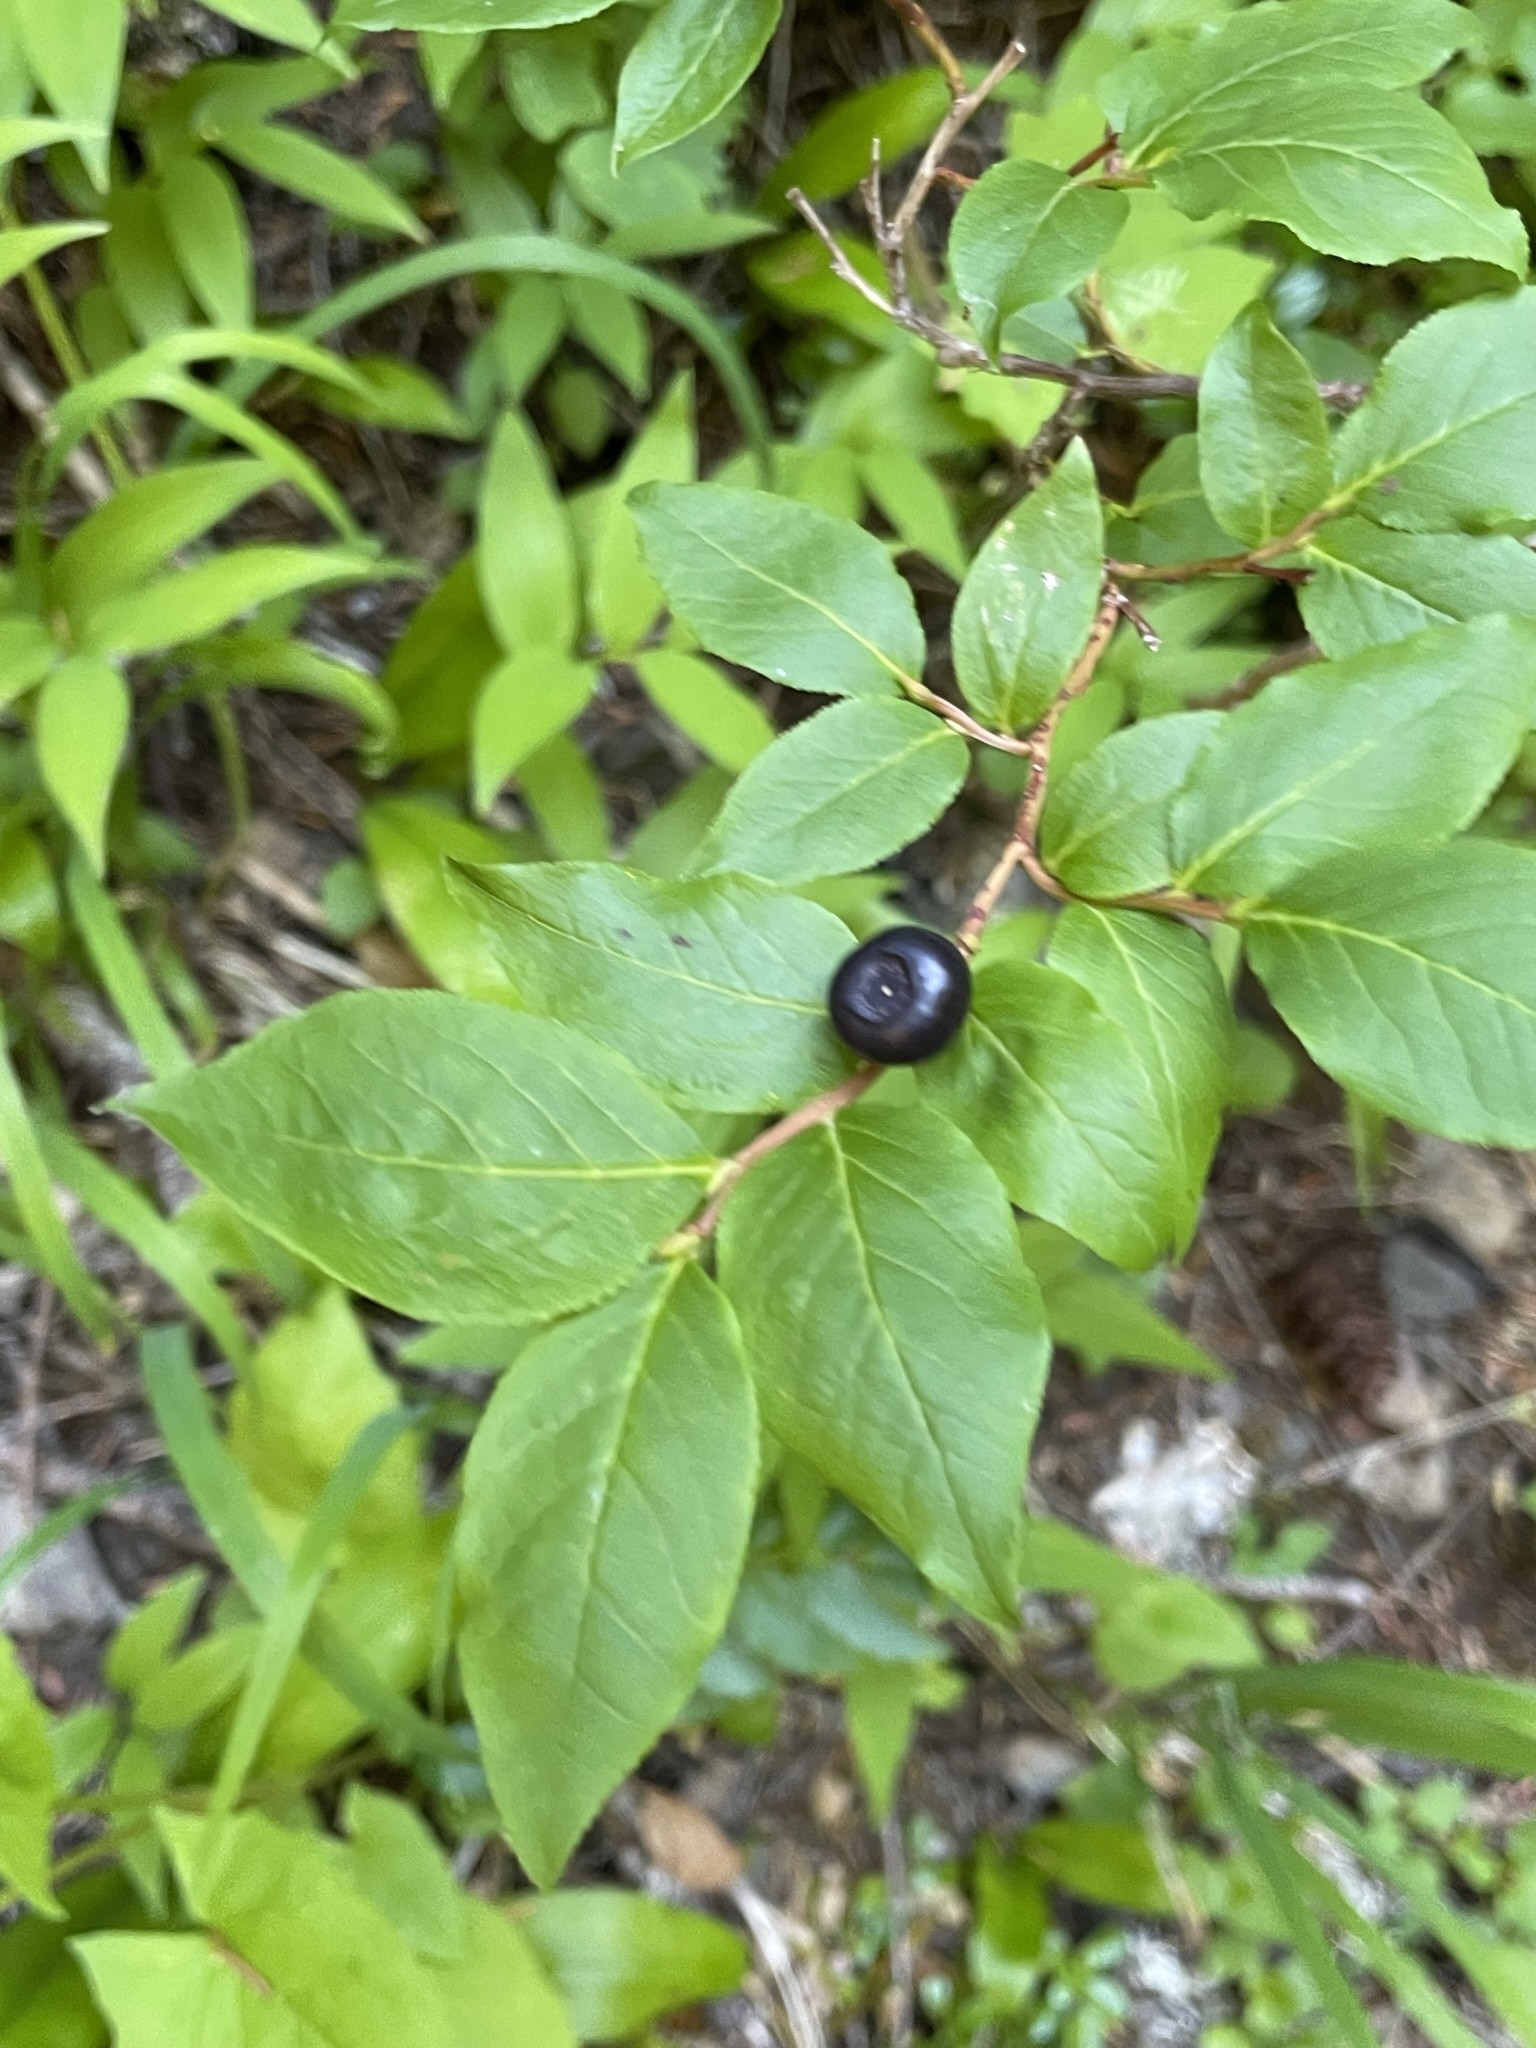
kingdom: Plantae
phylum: Tracheophyta
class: Magnoliopsida
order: Ericales
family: Ericaceae
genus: Vaccinium
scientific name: Vaccinium membranaceum
